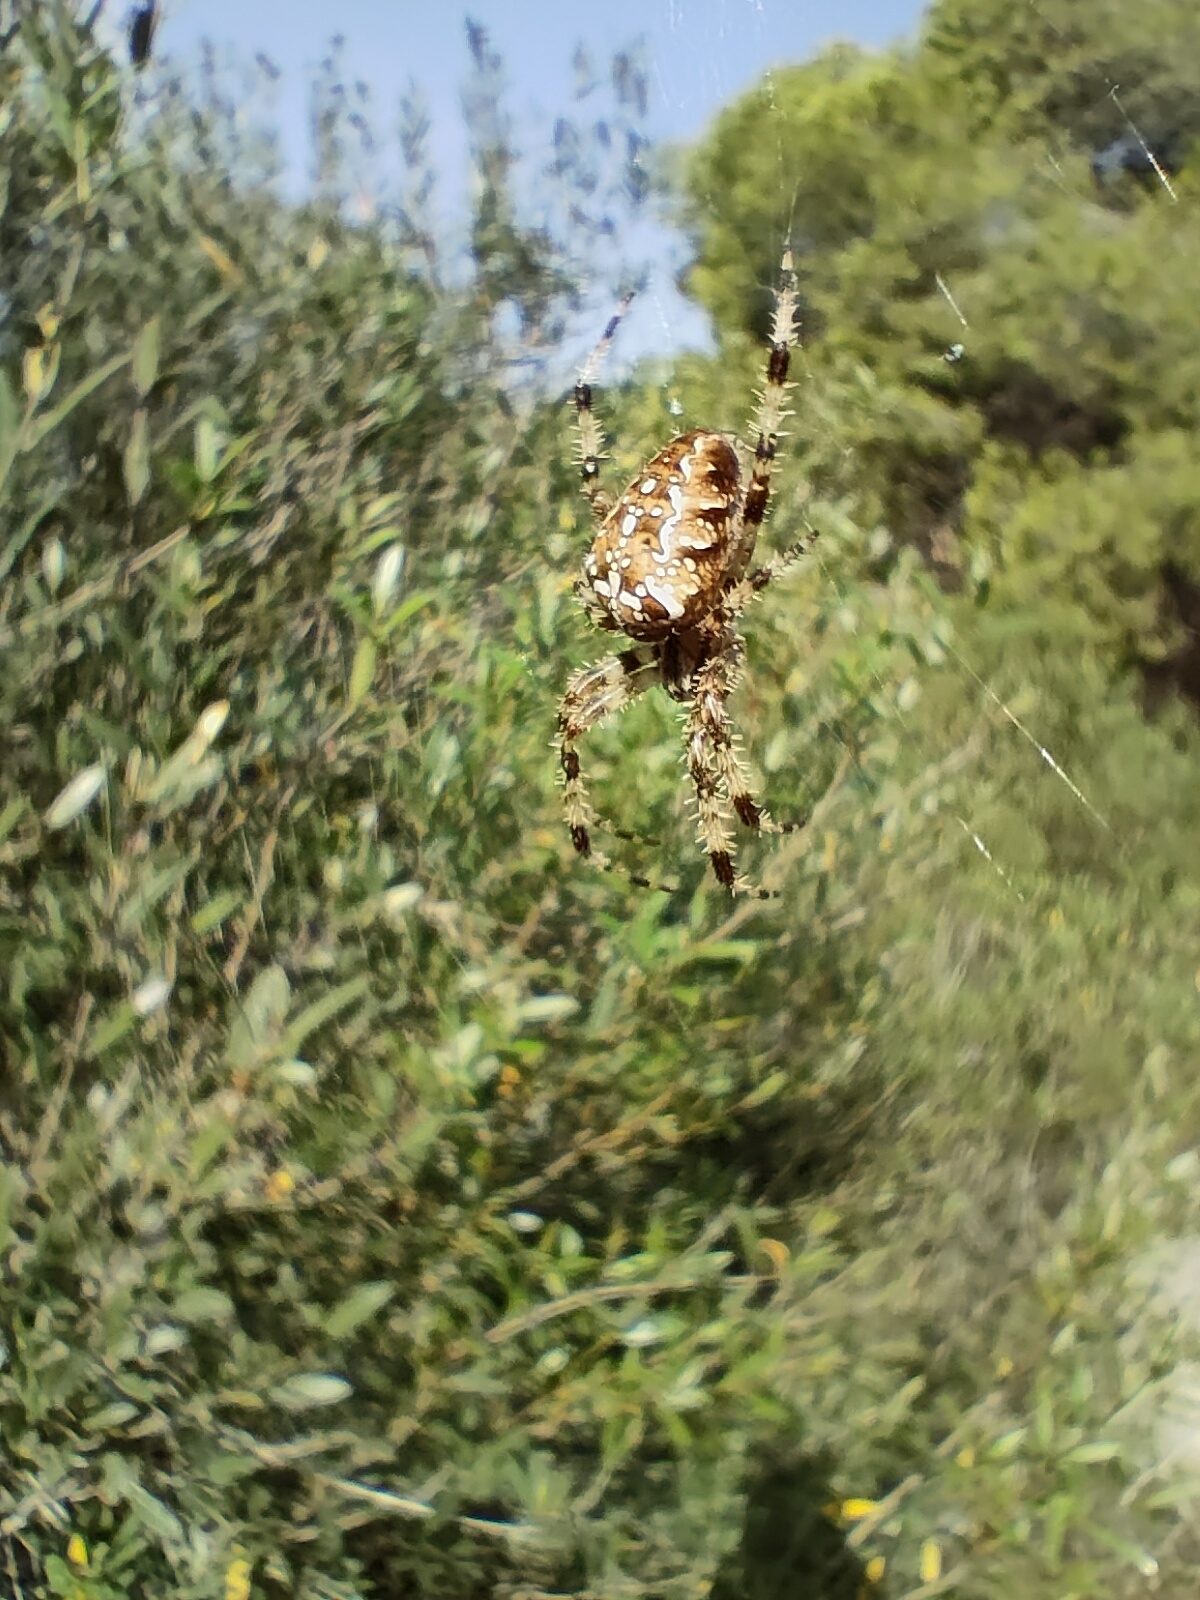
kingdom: Animalia
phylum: Arthropoda
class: Arachnida
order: Araneae
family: Araneidae
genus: Araneus
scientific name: Araneus diadematus
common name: Cross orbweaver
